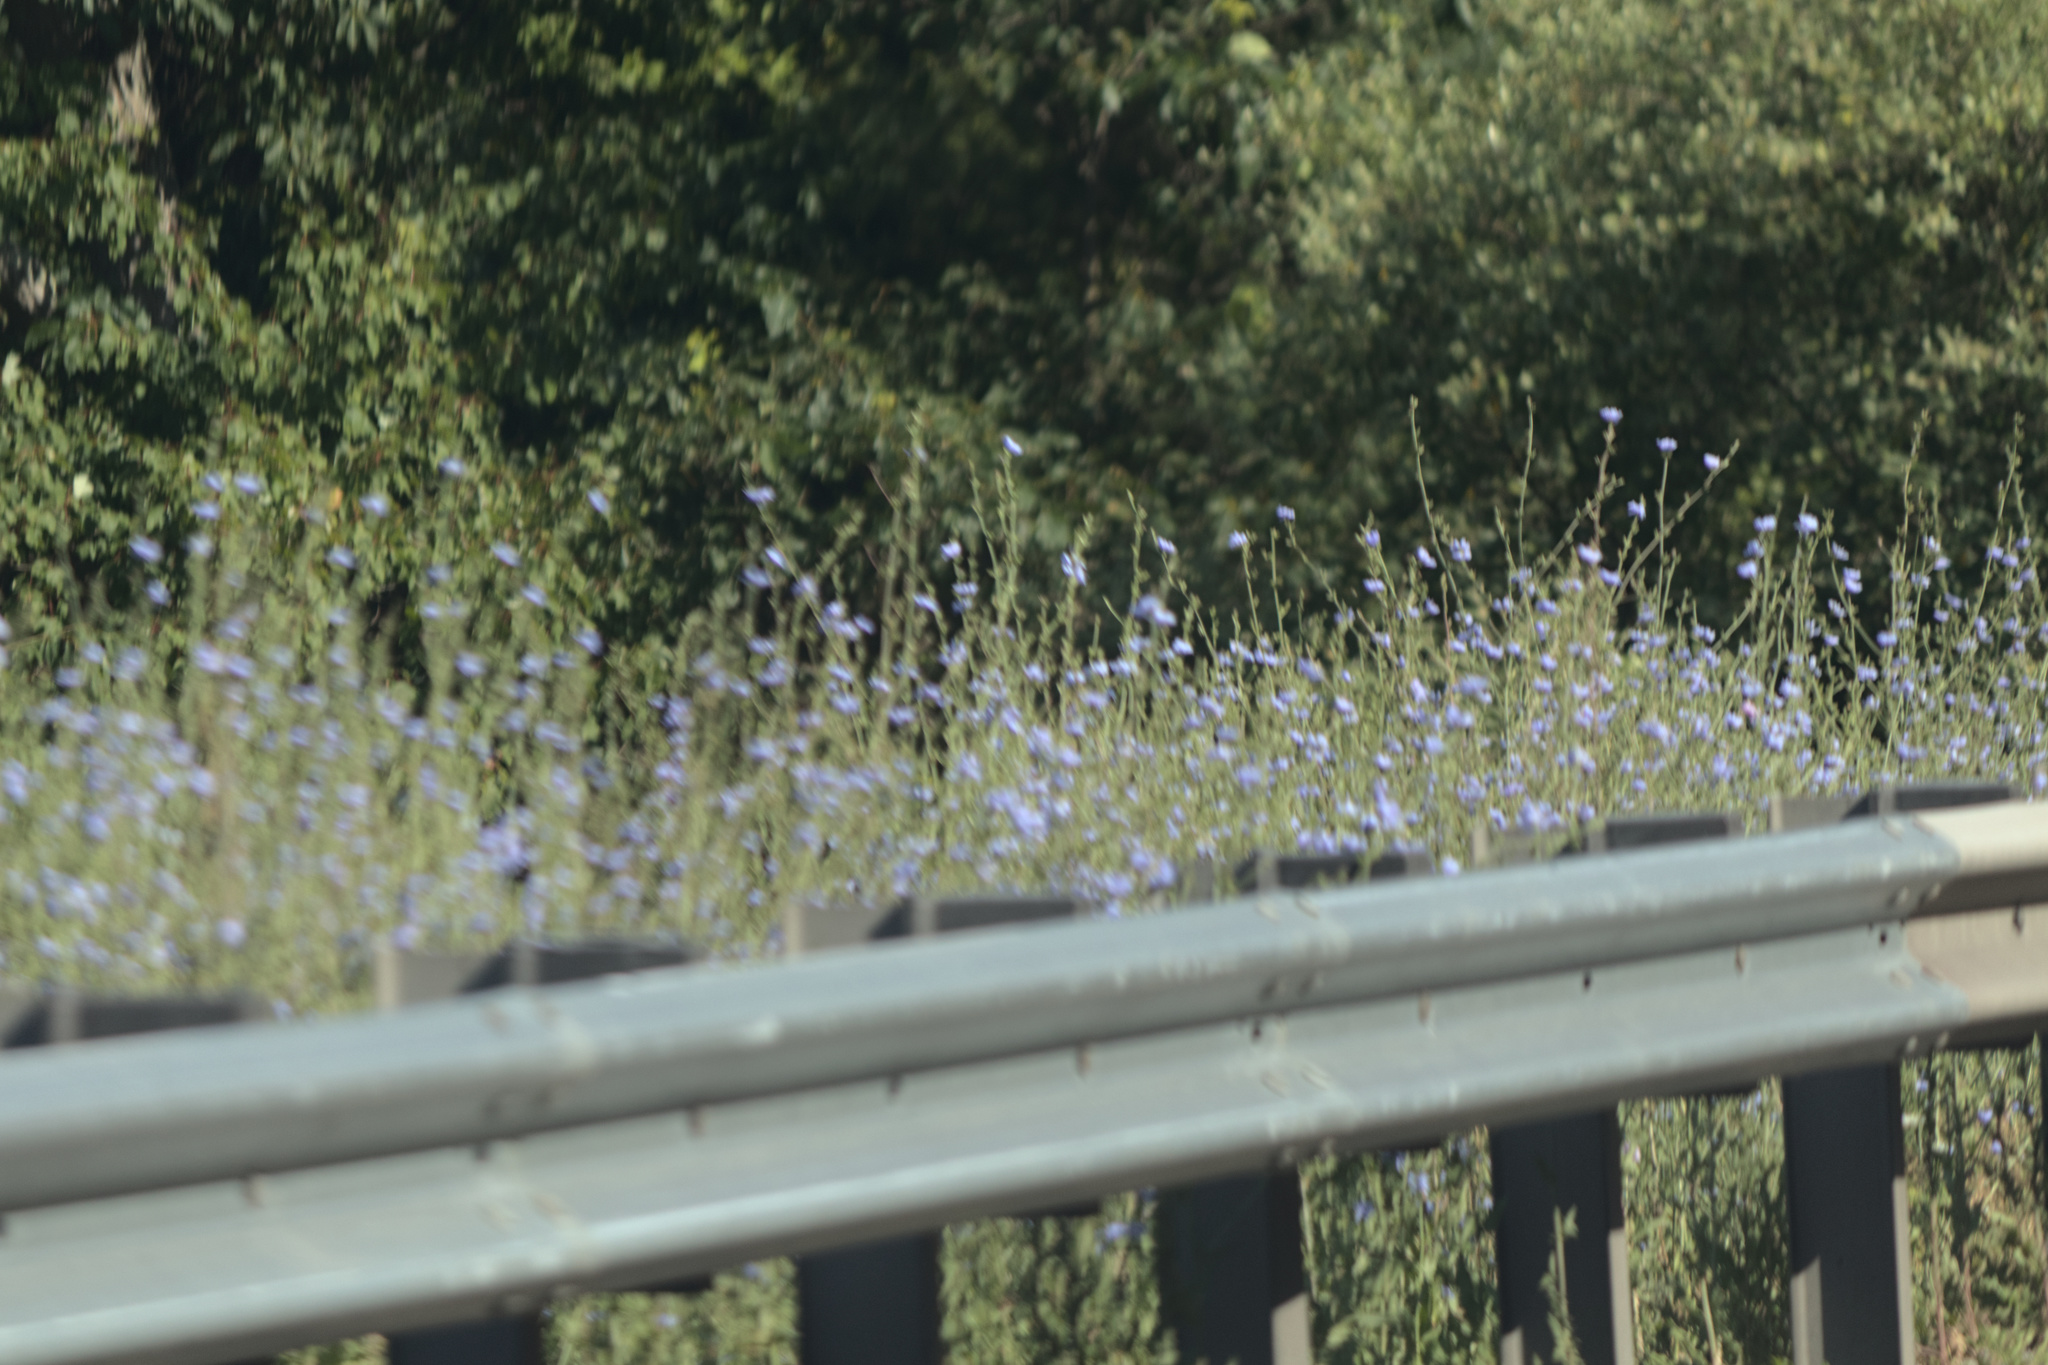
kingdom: Plantae
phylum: Tracheophyta
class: Magnoliopsida
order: Asterales
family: Asteraceae
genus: Cichorium
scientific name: Cichorium intybus
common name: Chicory
